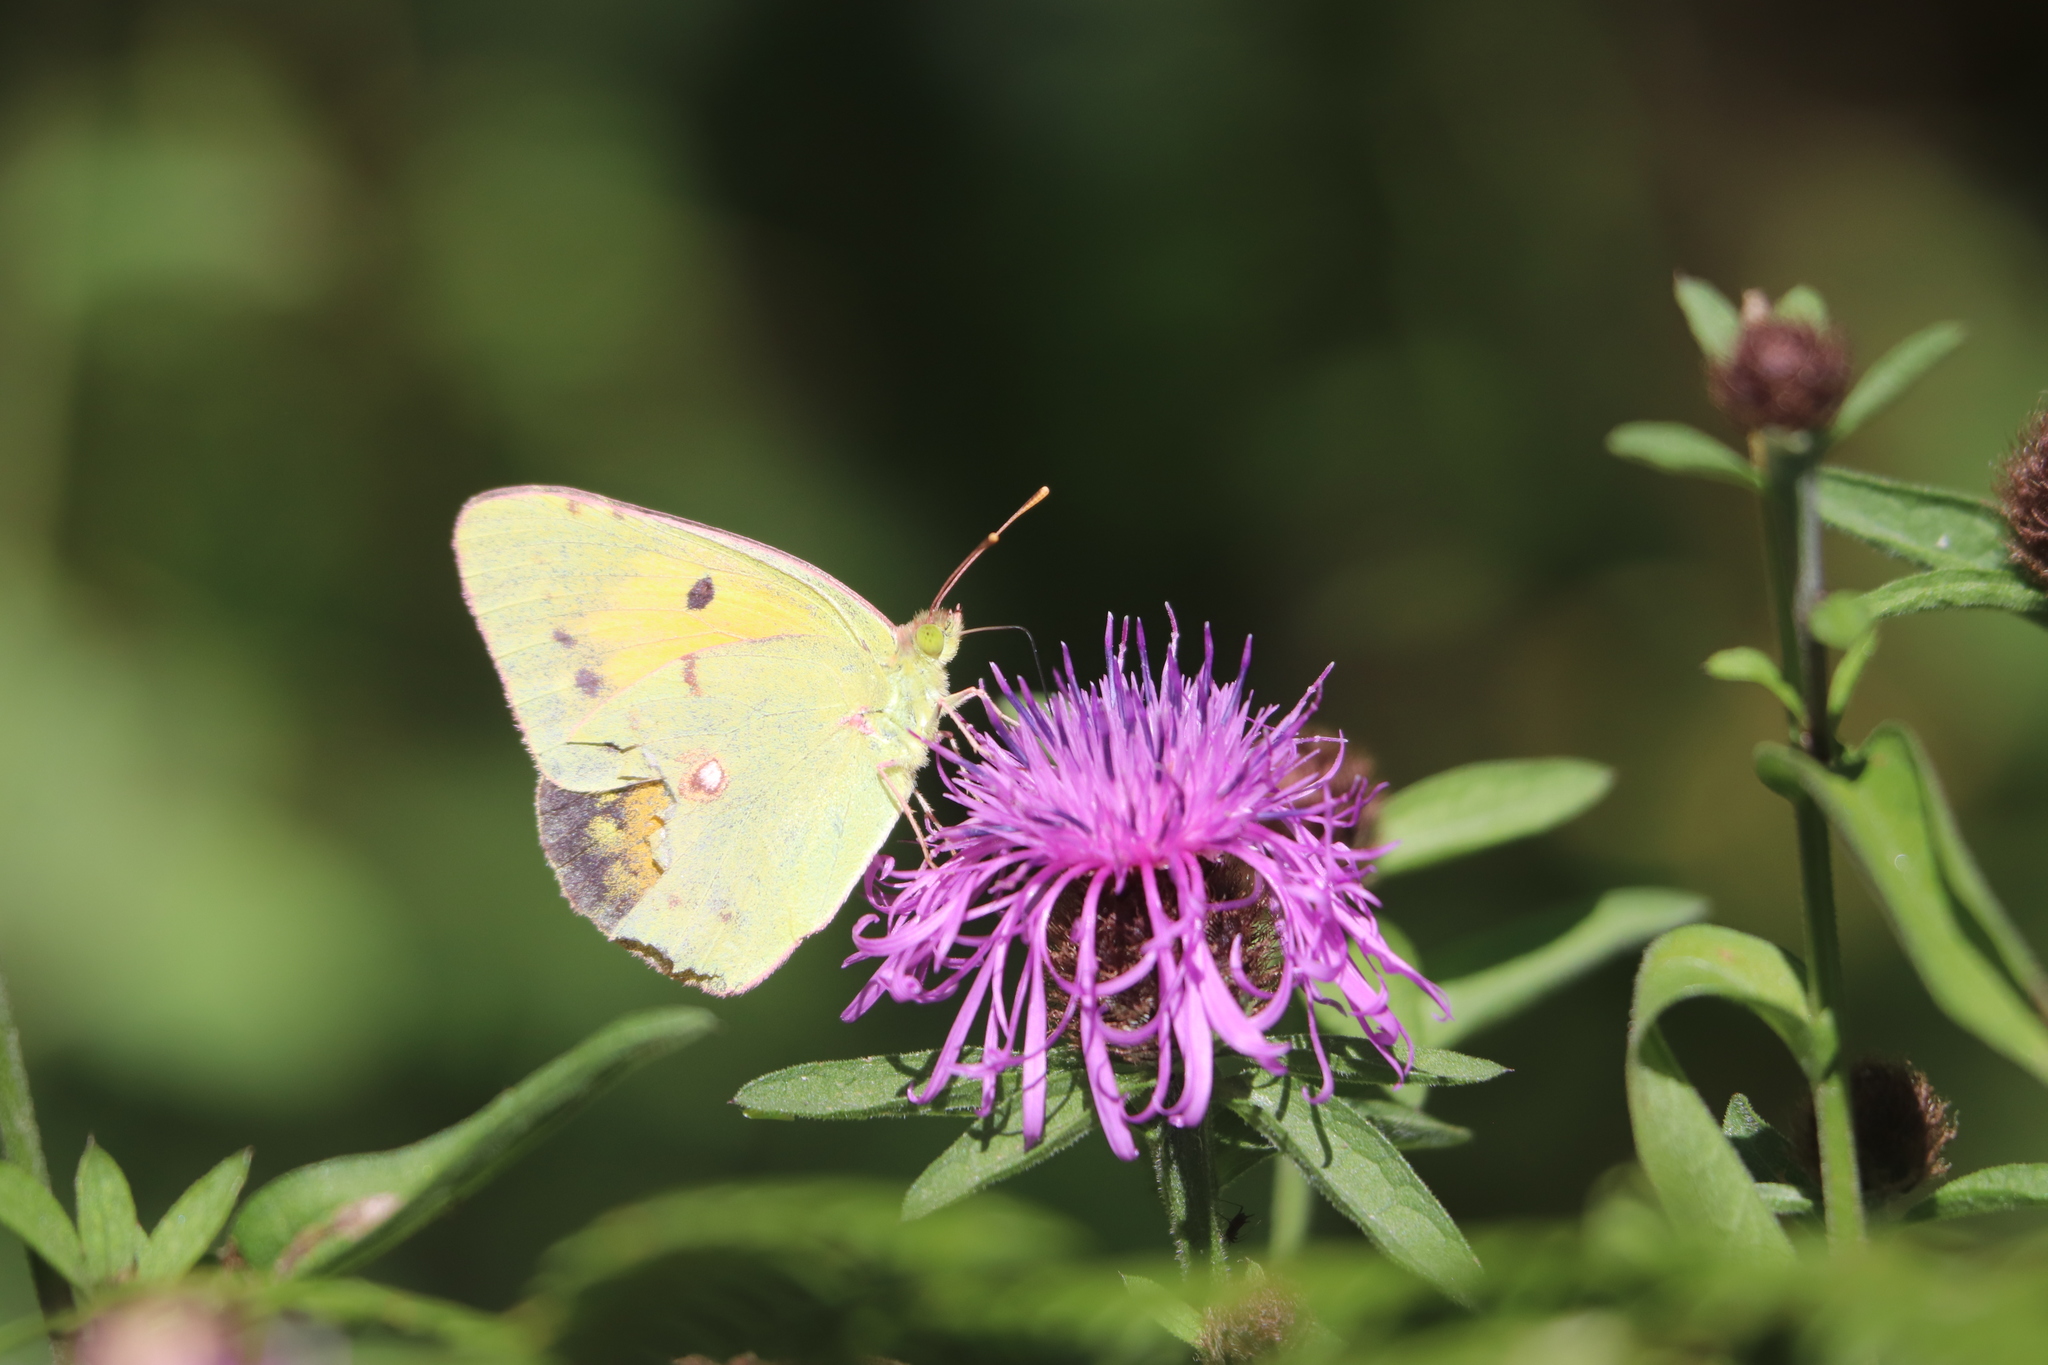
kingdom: Animalia
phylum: Arthropoda
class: Insecta
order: Lepidoptera
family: Pieridae
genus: Colias
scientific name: Colias croceus
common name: Clouded yellow
